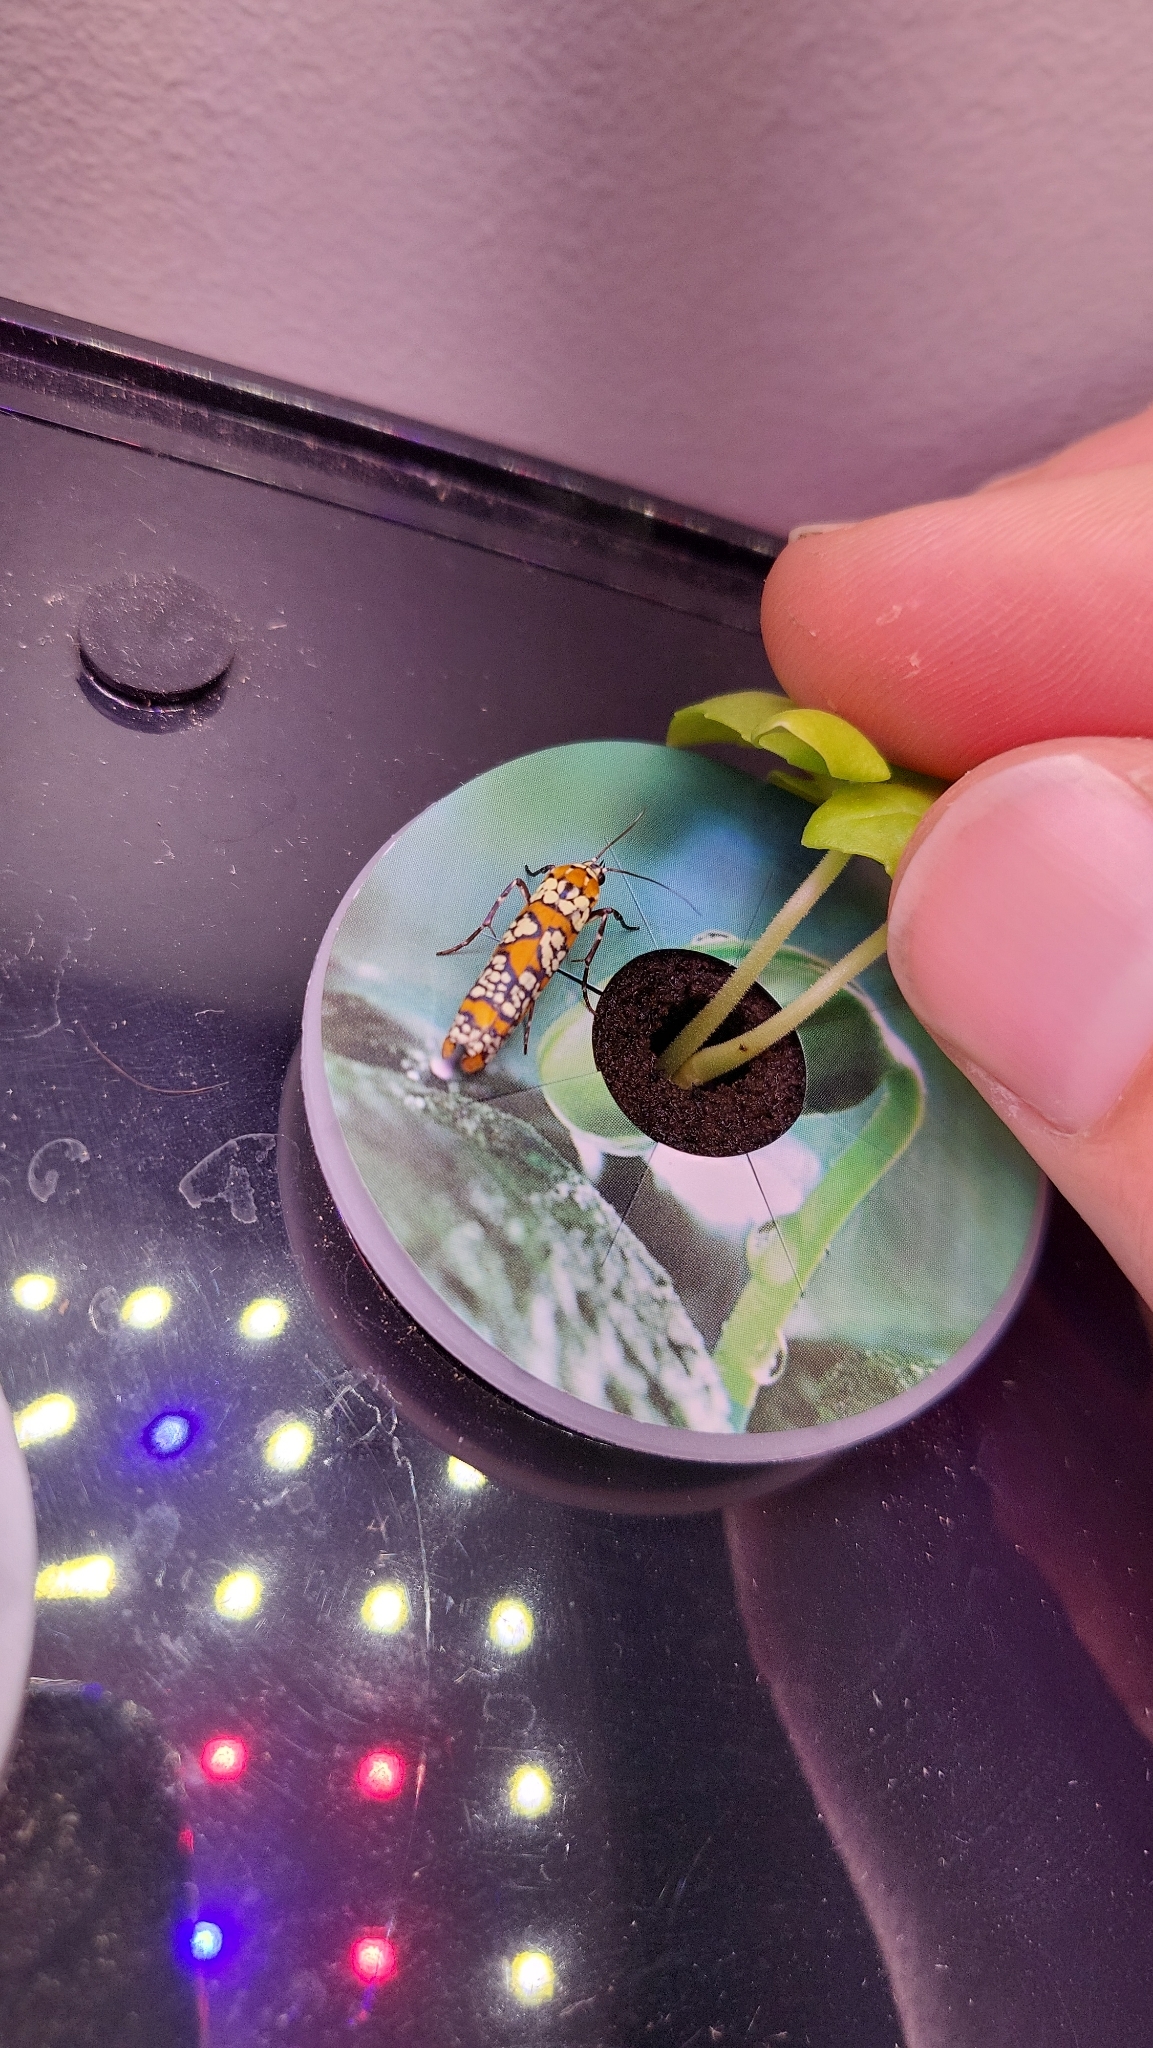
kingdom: Animalia
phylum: Arthropoda
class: Insecta
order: Lepidoptera
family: Attevidae
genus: Atteva
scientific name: Atteva punctella
